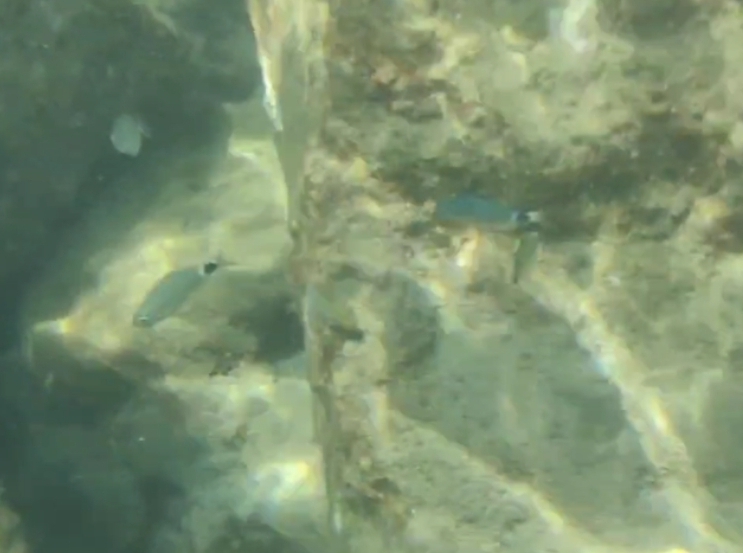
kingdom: Animalia
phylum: Chordata
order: Perciformes
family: Sparidae
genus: Oblada
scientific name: Oblada melanura
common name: Saddled seabream
